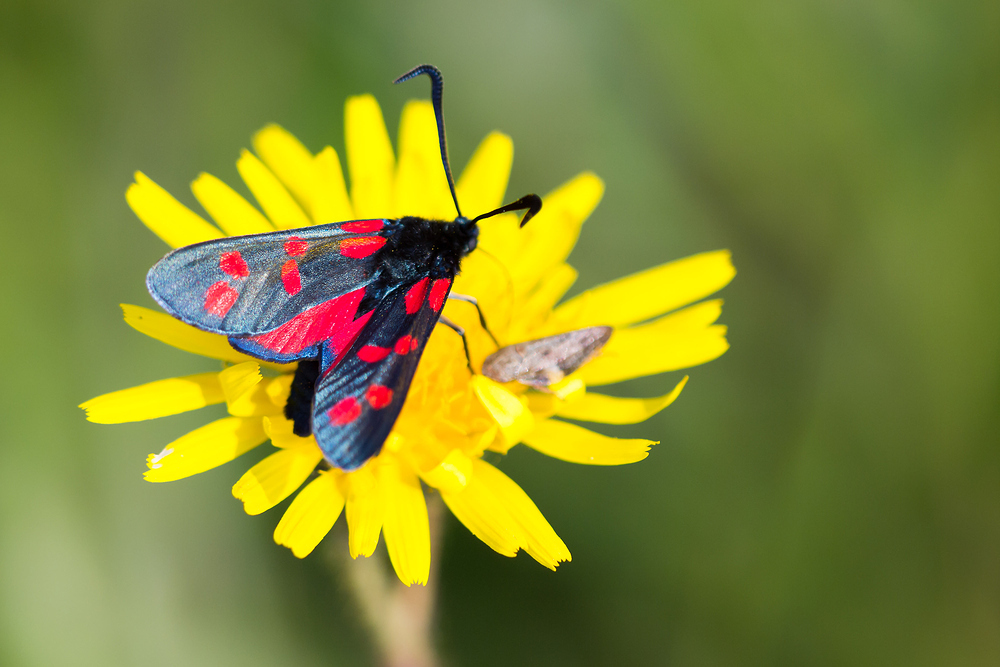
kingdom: Animalia
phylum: Arthropoda
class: Insecta
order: Lepidoptera
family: Zygaenidae
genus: Zygaena
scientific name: Zygaena filipendulae
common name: Six-spot burnet
